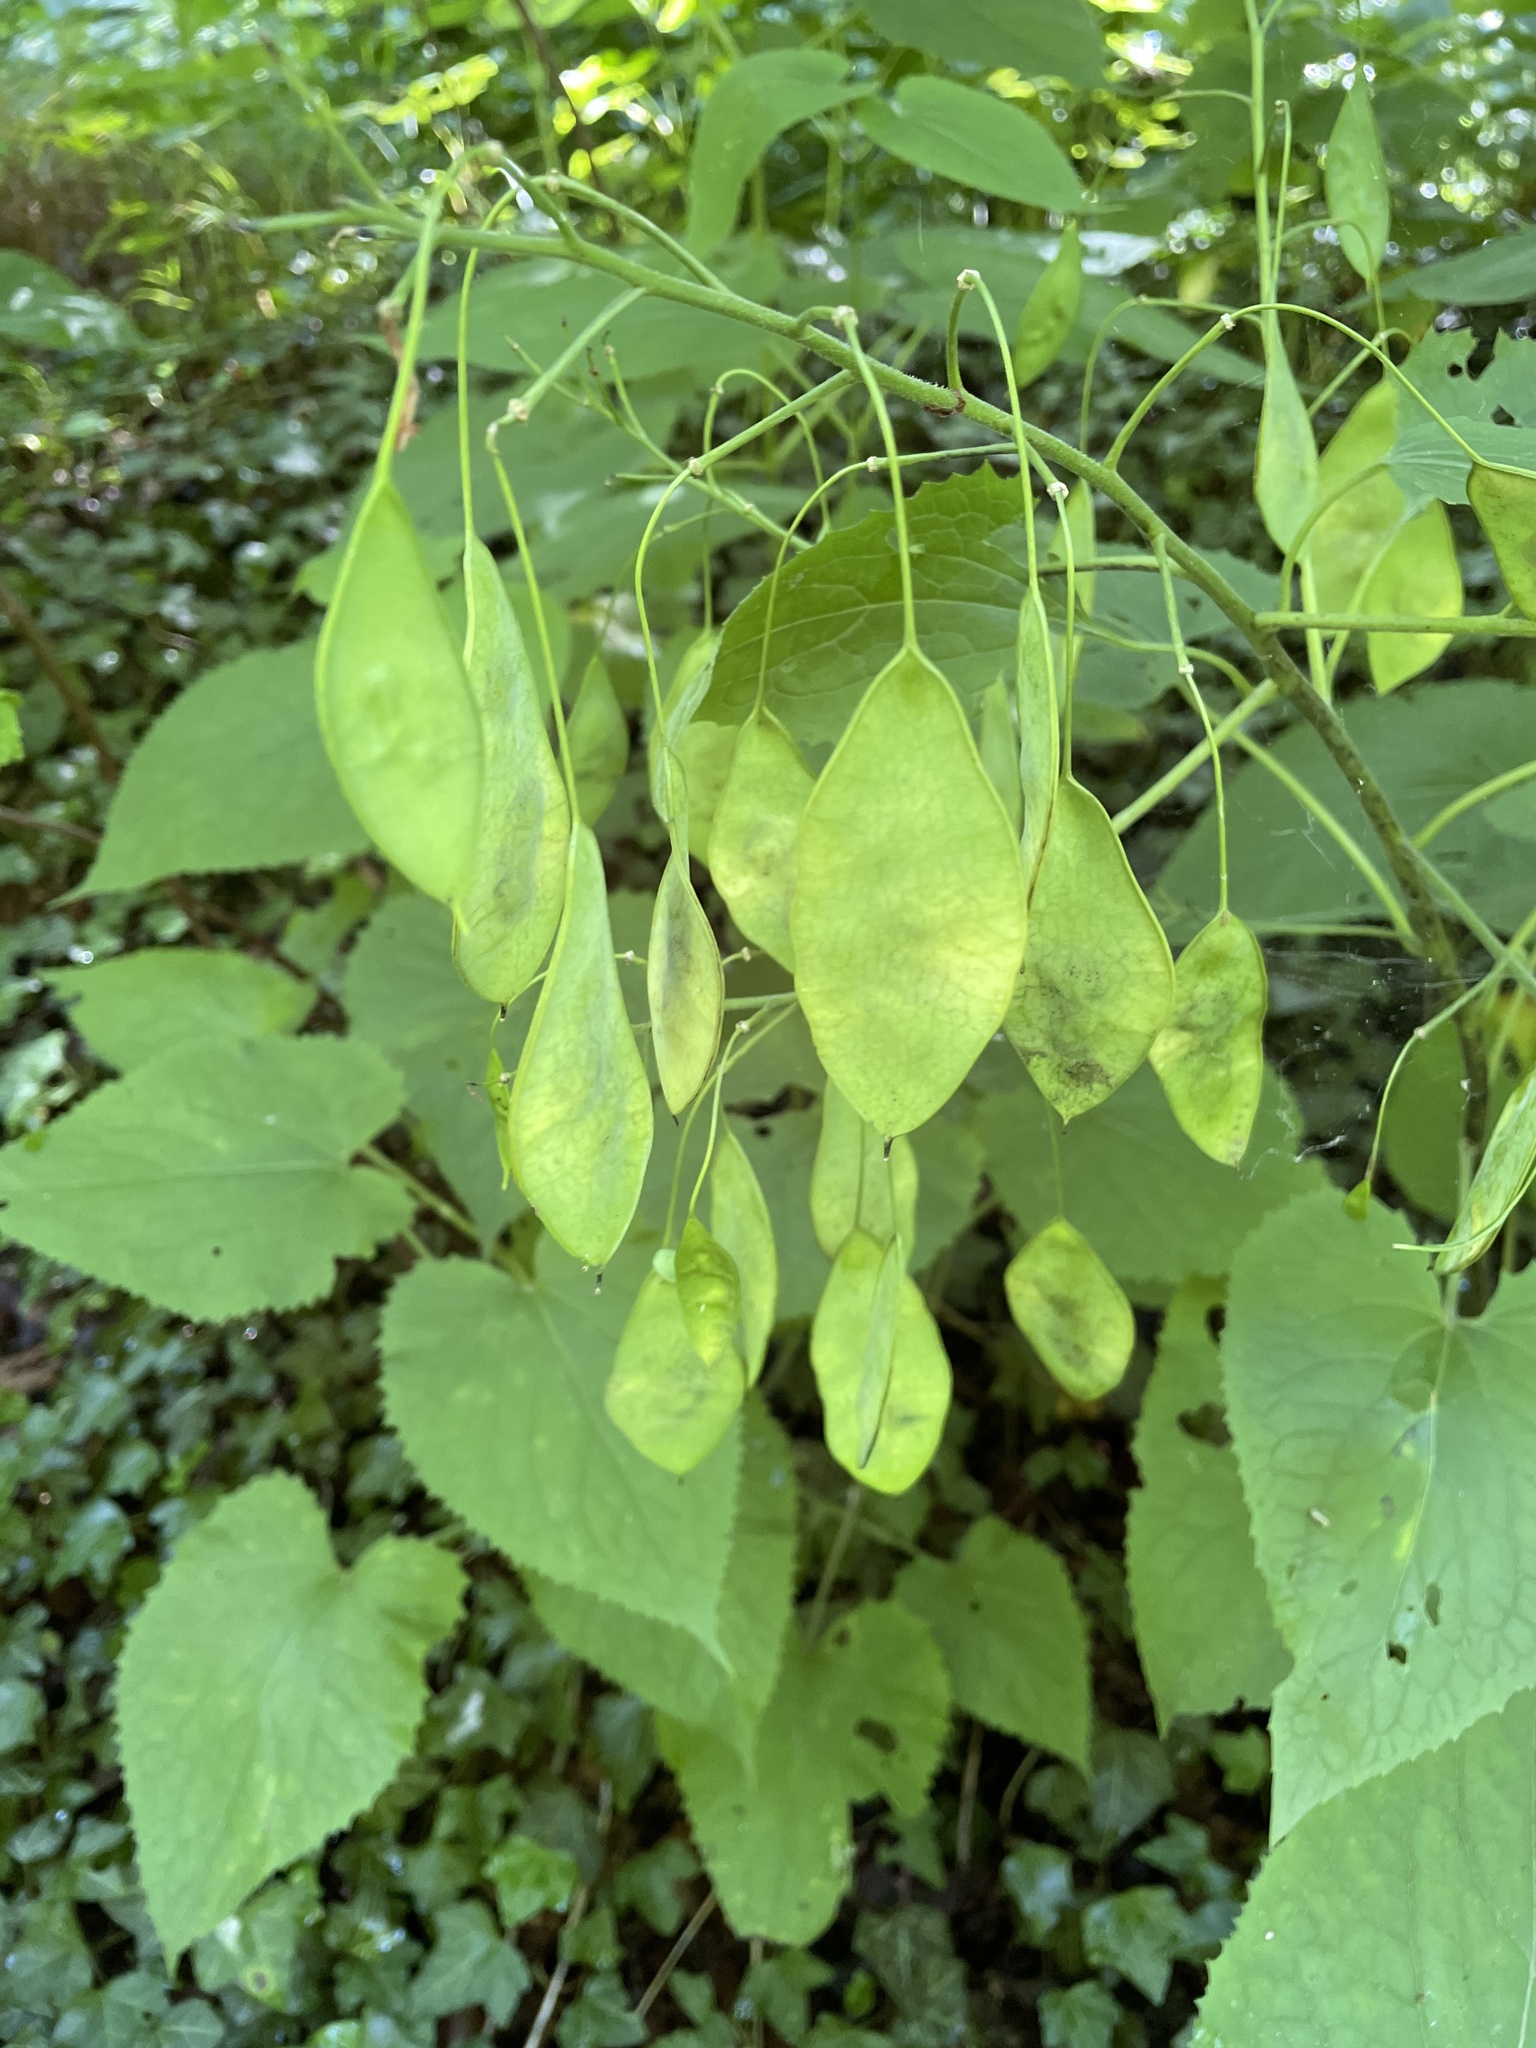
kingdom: Plantae
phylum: Tracheophyta
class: Magnoliopsida
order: Brassicales
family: Brassicaceae
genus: Lunaria
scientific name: Lunaria rediviva
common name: Perennial honesty
